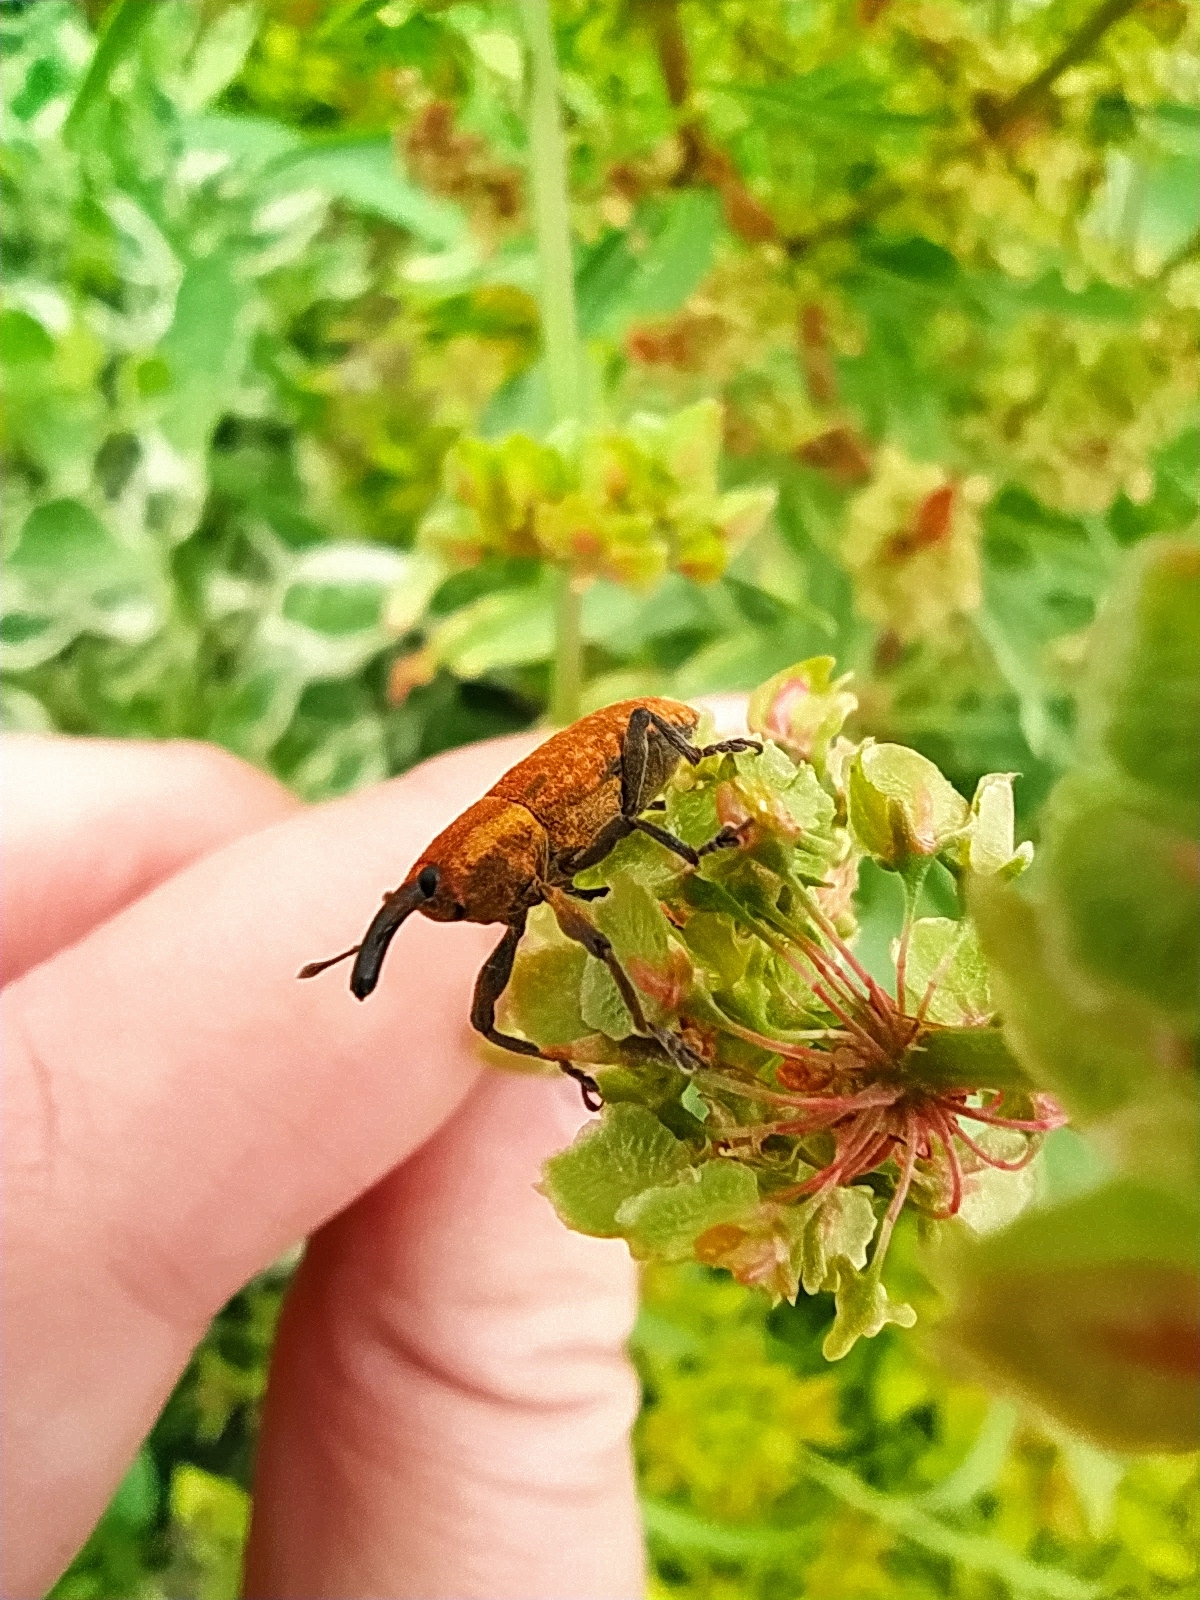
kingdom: Animalia
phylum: Arthropoda
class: Insecta
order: Coleoptera
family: Curculionidae
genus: Lixus
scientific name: Lixus bardanae
